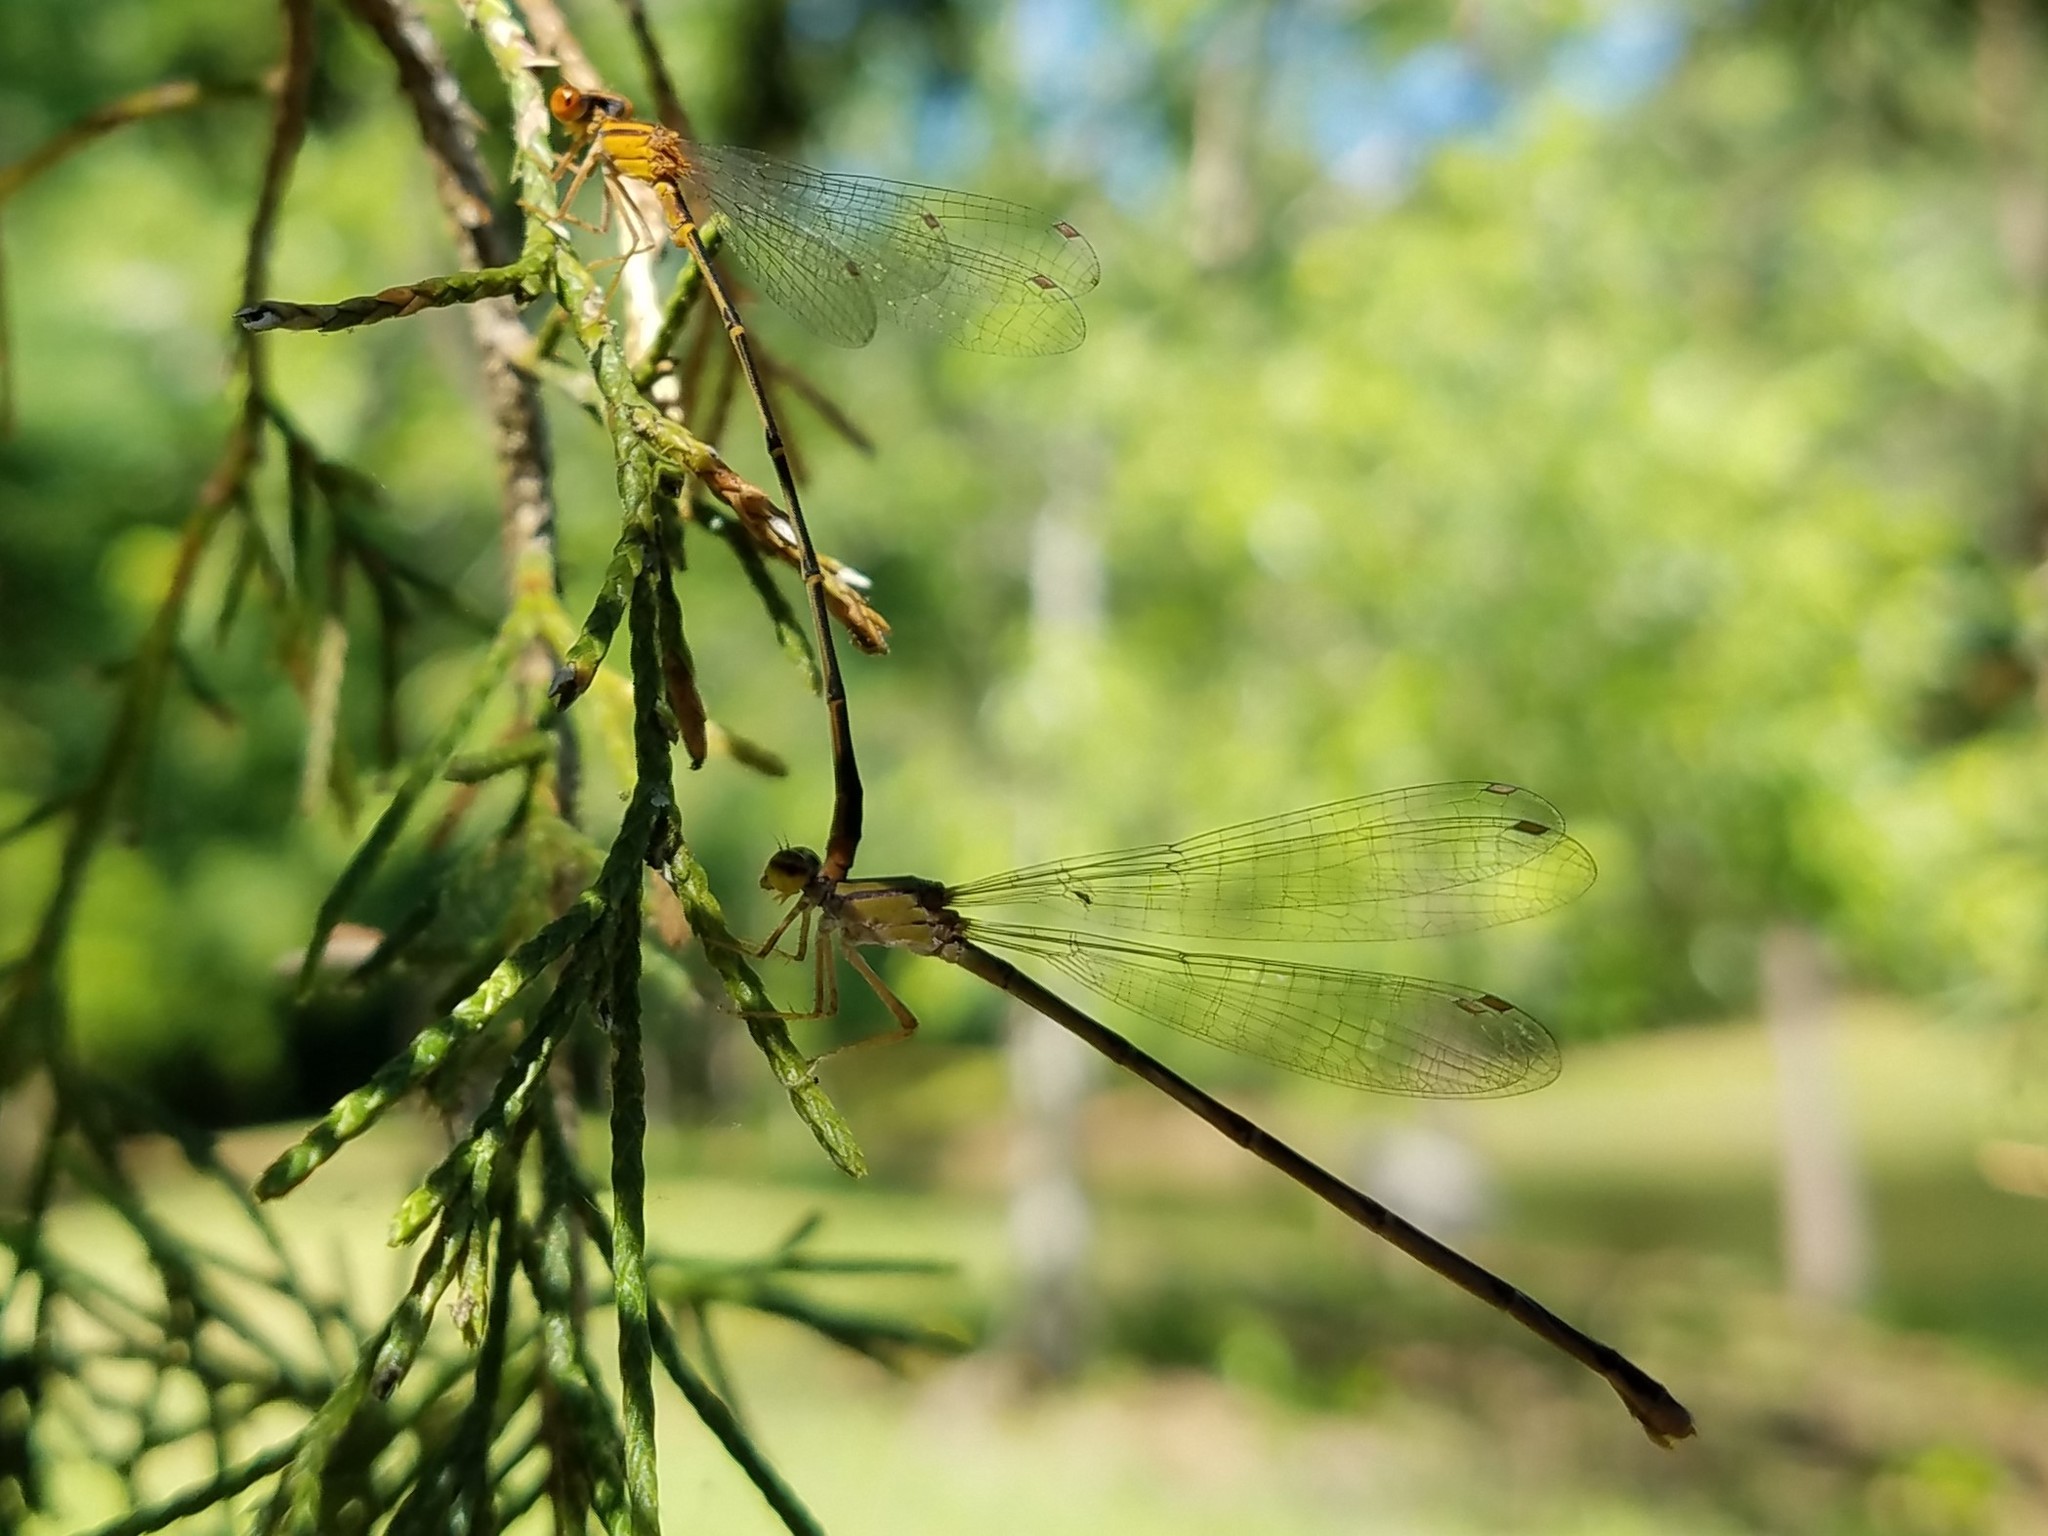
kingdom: Animalia
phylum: Arthropoda
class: Insecta
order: Odonata
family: Coenagrionidae
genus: Enallagma
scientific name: Enallagma signatum
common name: Orange bluet
